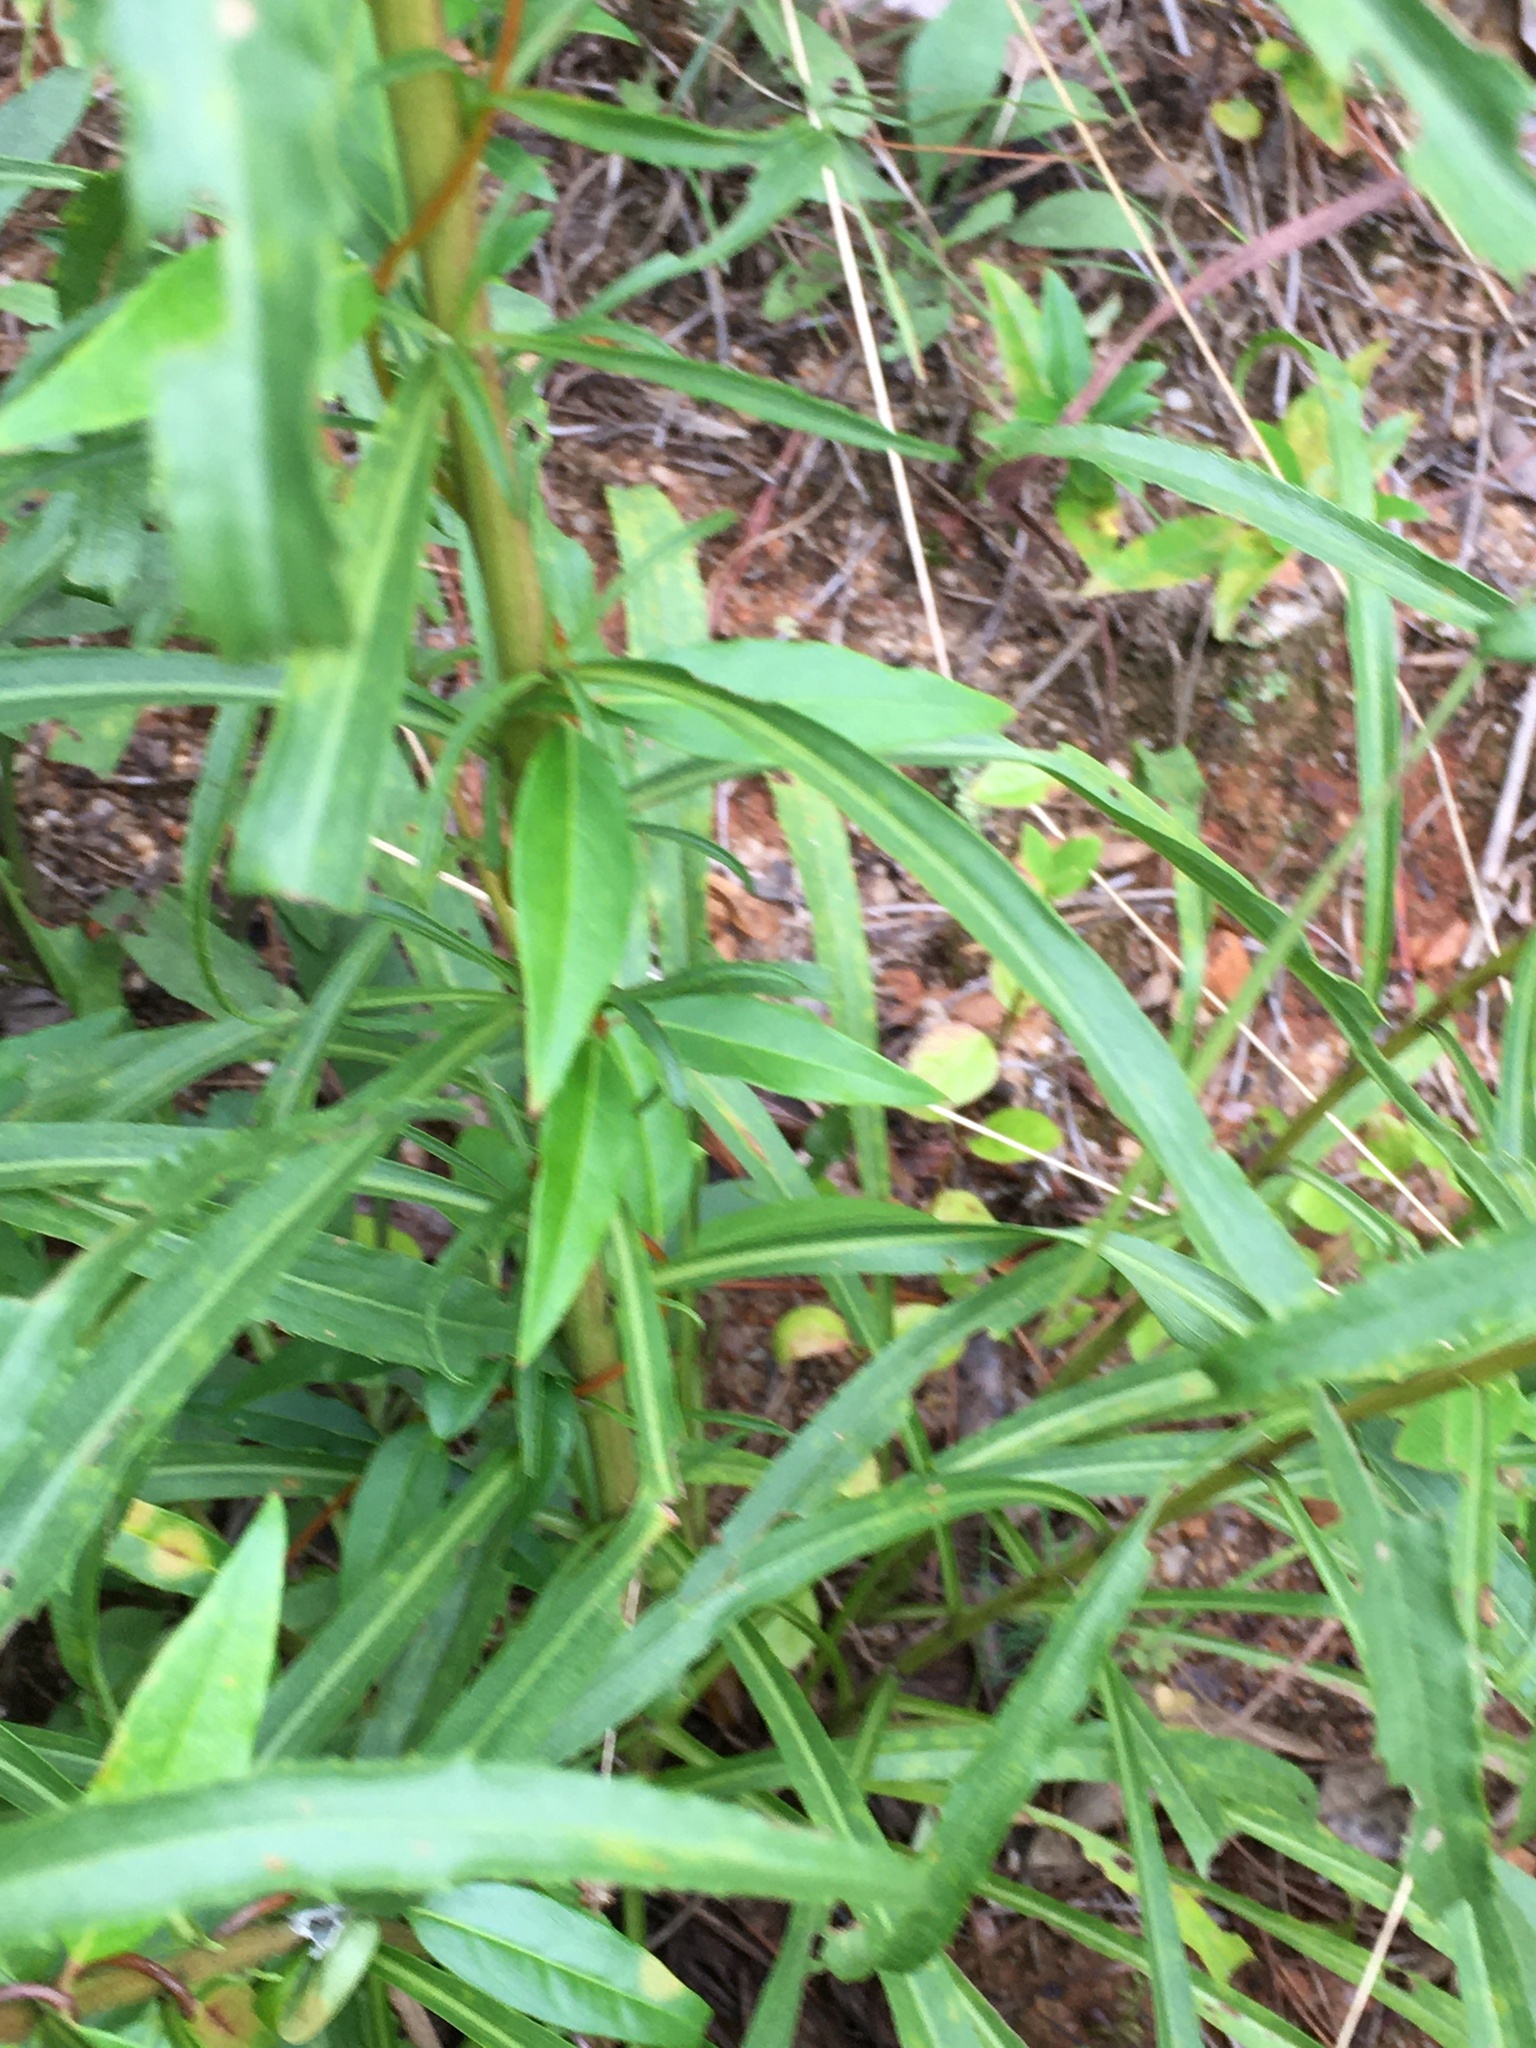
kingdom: Plantae
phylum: Tracheophyta
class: Magnoliopsida
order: Asterales
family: Asteraceae
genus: Solidago
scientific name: Solidago pinetorum
